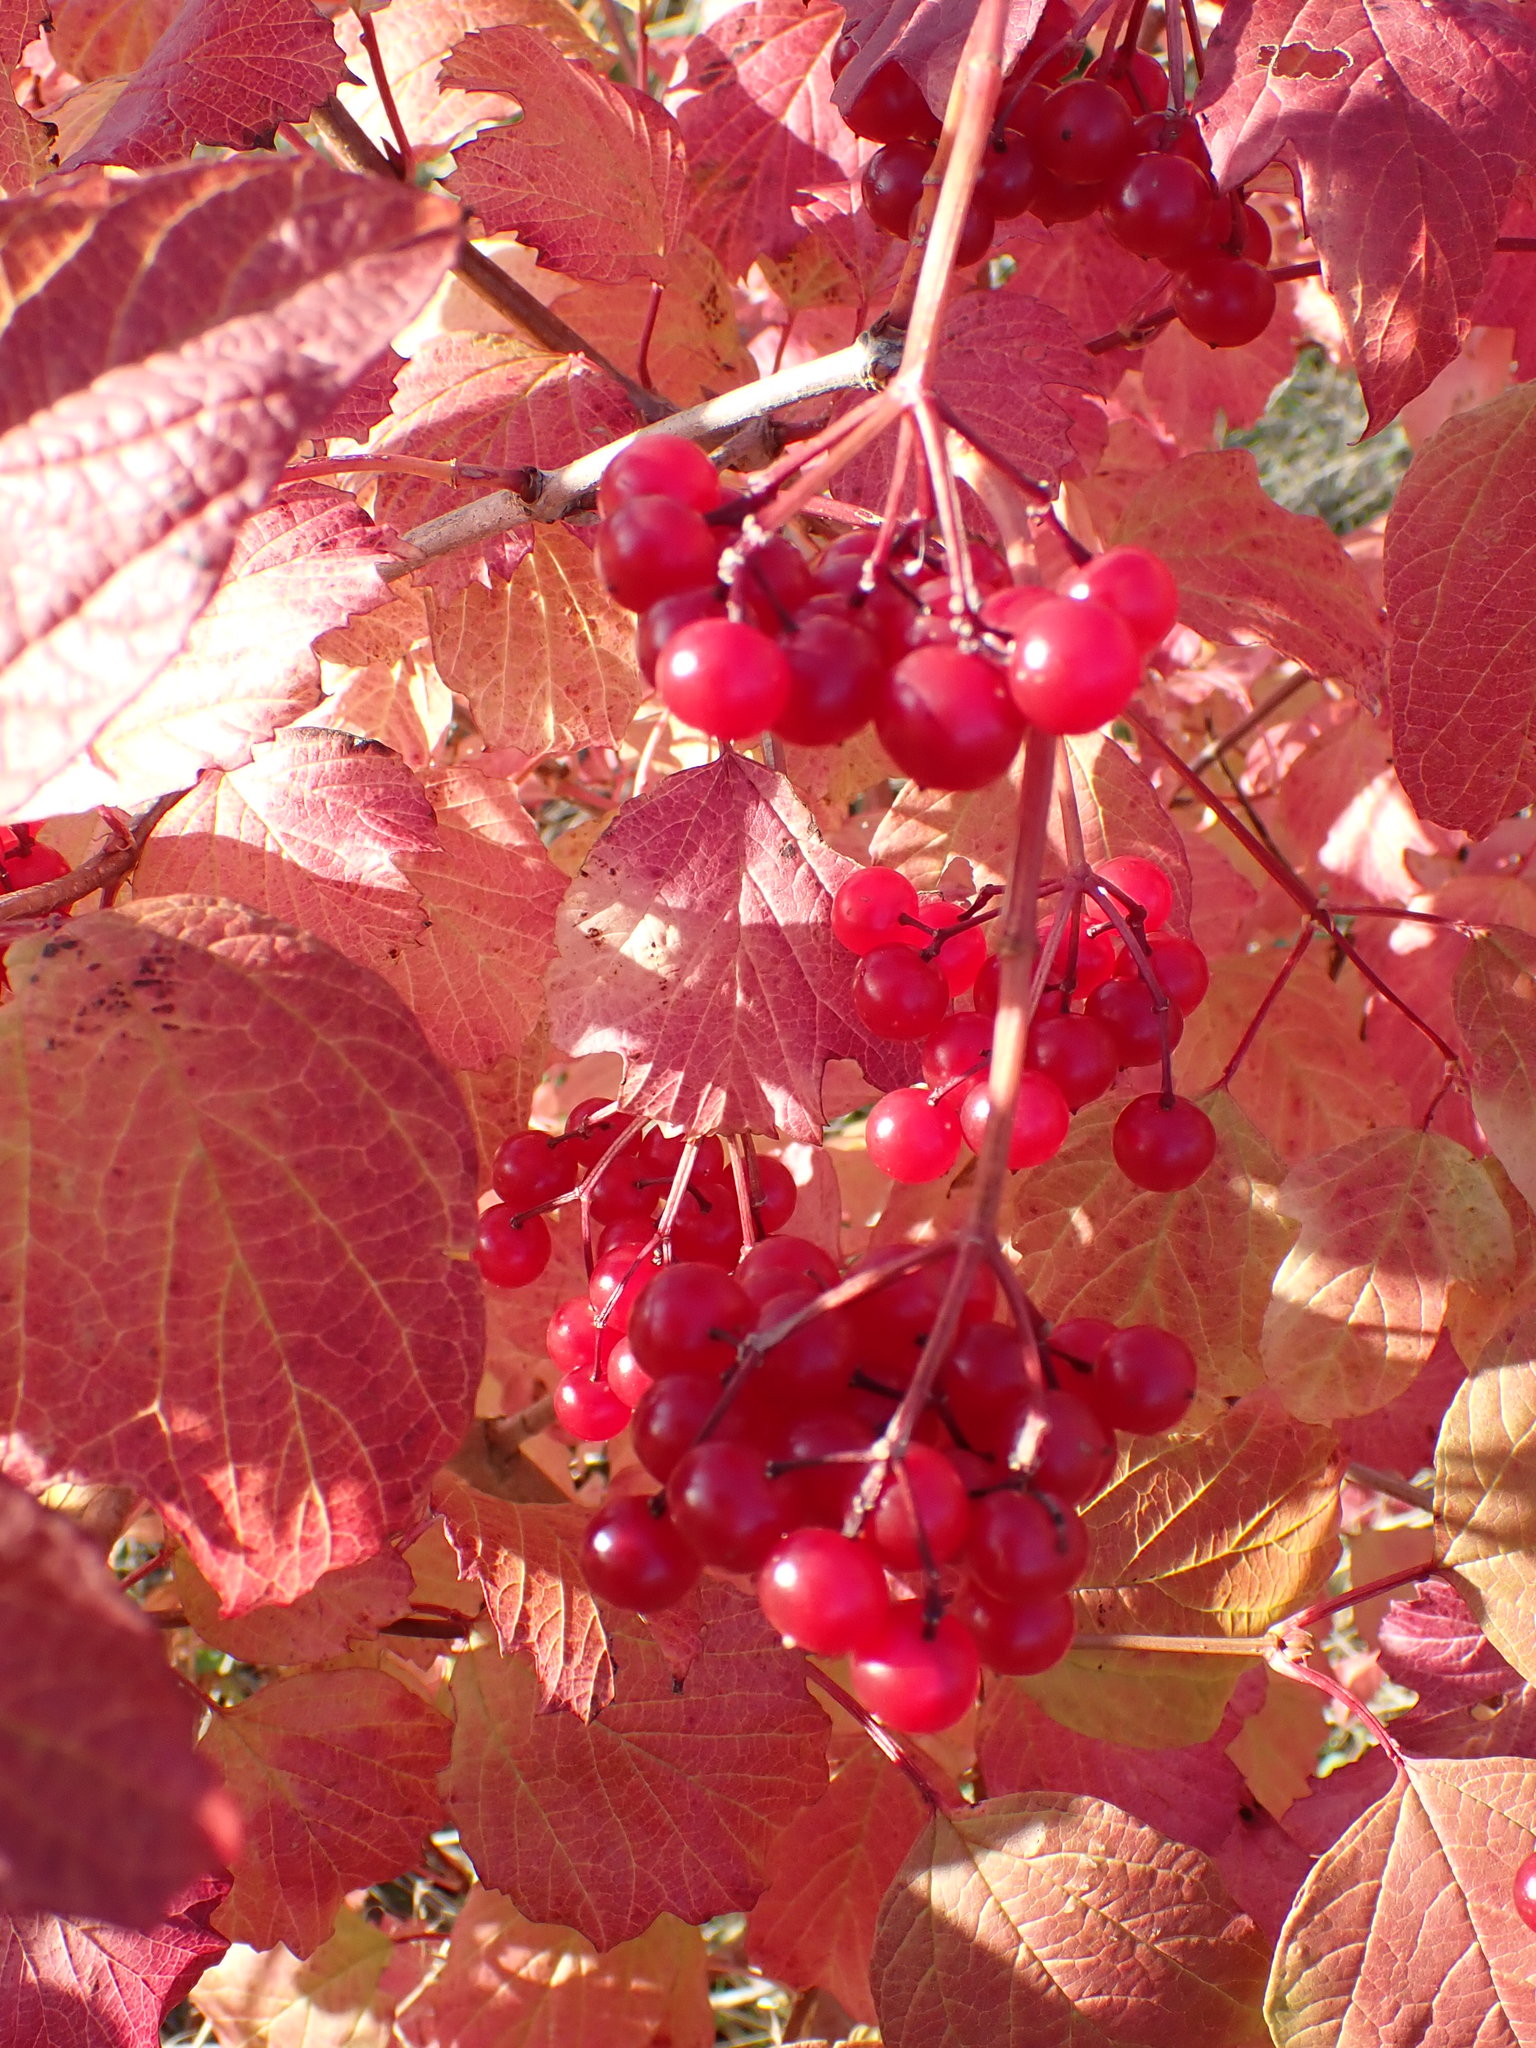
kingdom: Plantae
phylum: Tracheophyta
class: Magnoliopsida
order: Dipsacales
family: Viburnaceae
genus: Viburnum
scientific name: Viburnum opulus
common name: Guelder-rose
